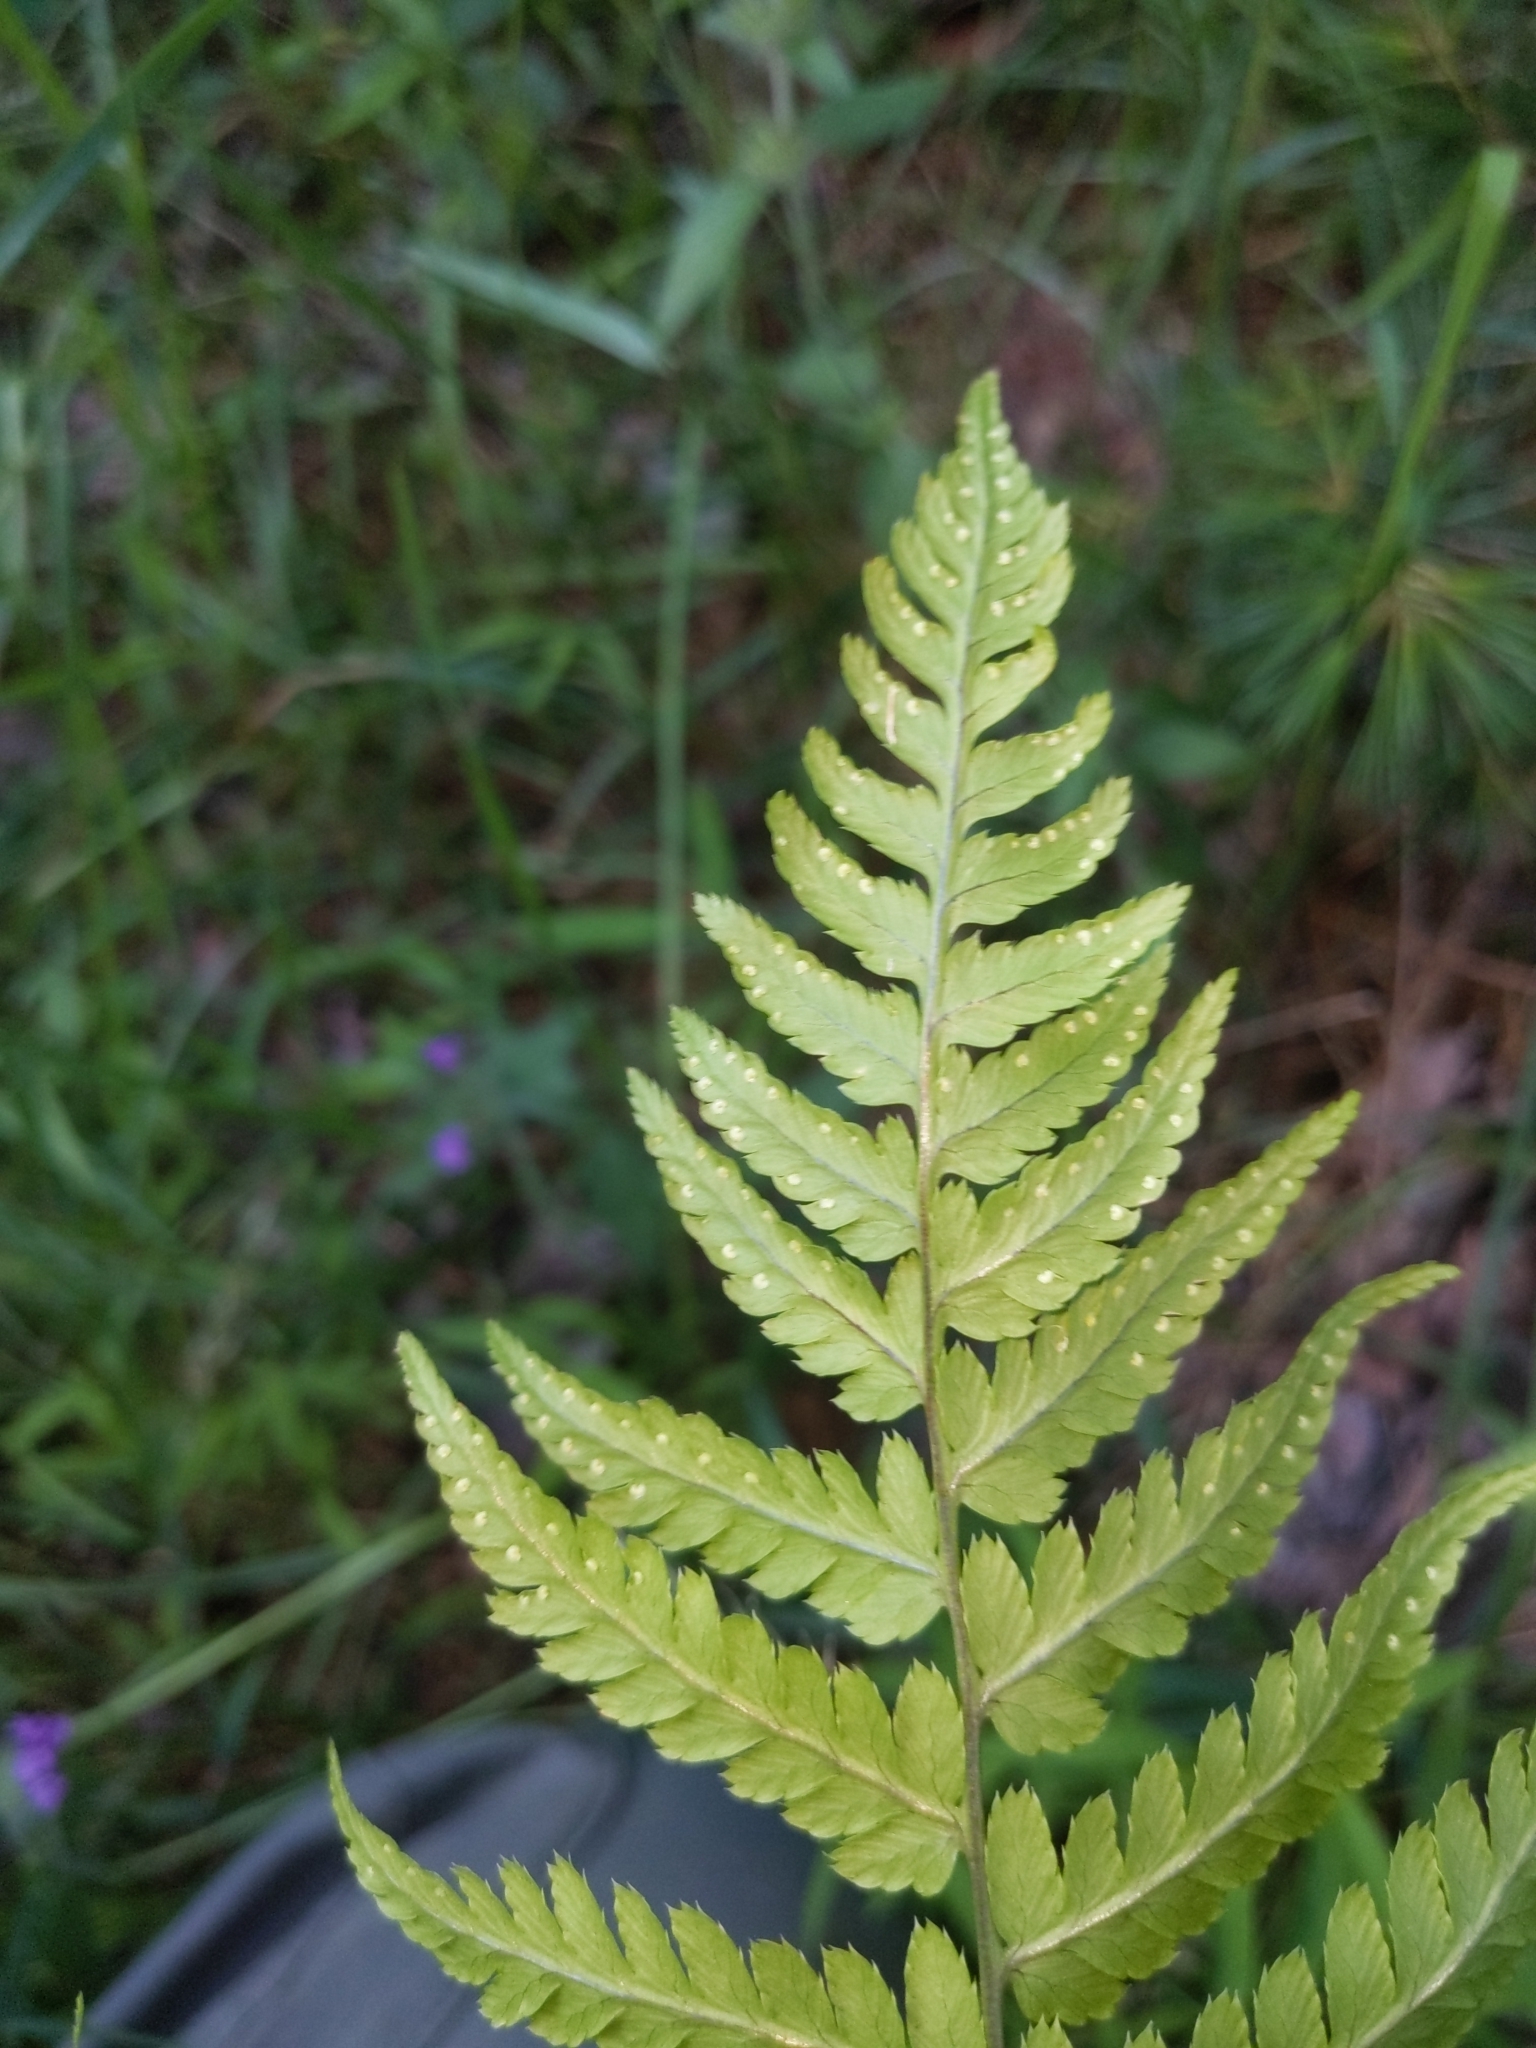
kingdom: Plantae
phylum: Tracheophyta
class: Polypodiopsida
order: Polypodiales
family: Dryopteridaceae
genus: Dryopteris
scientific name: Dryopteris marginalis
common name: Marginal wood fern
